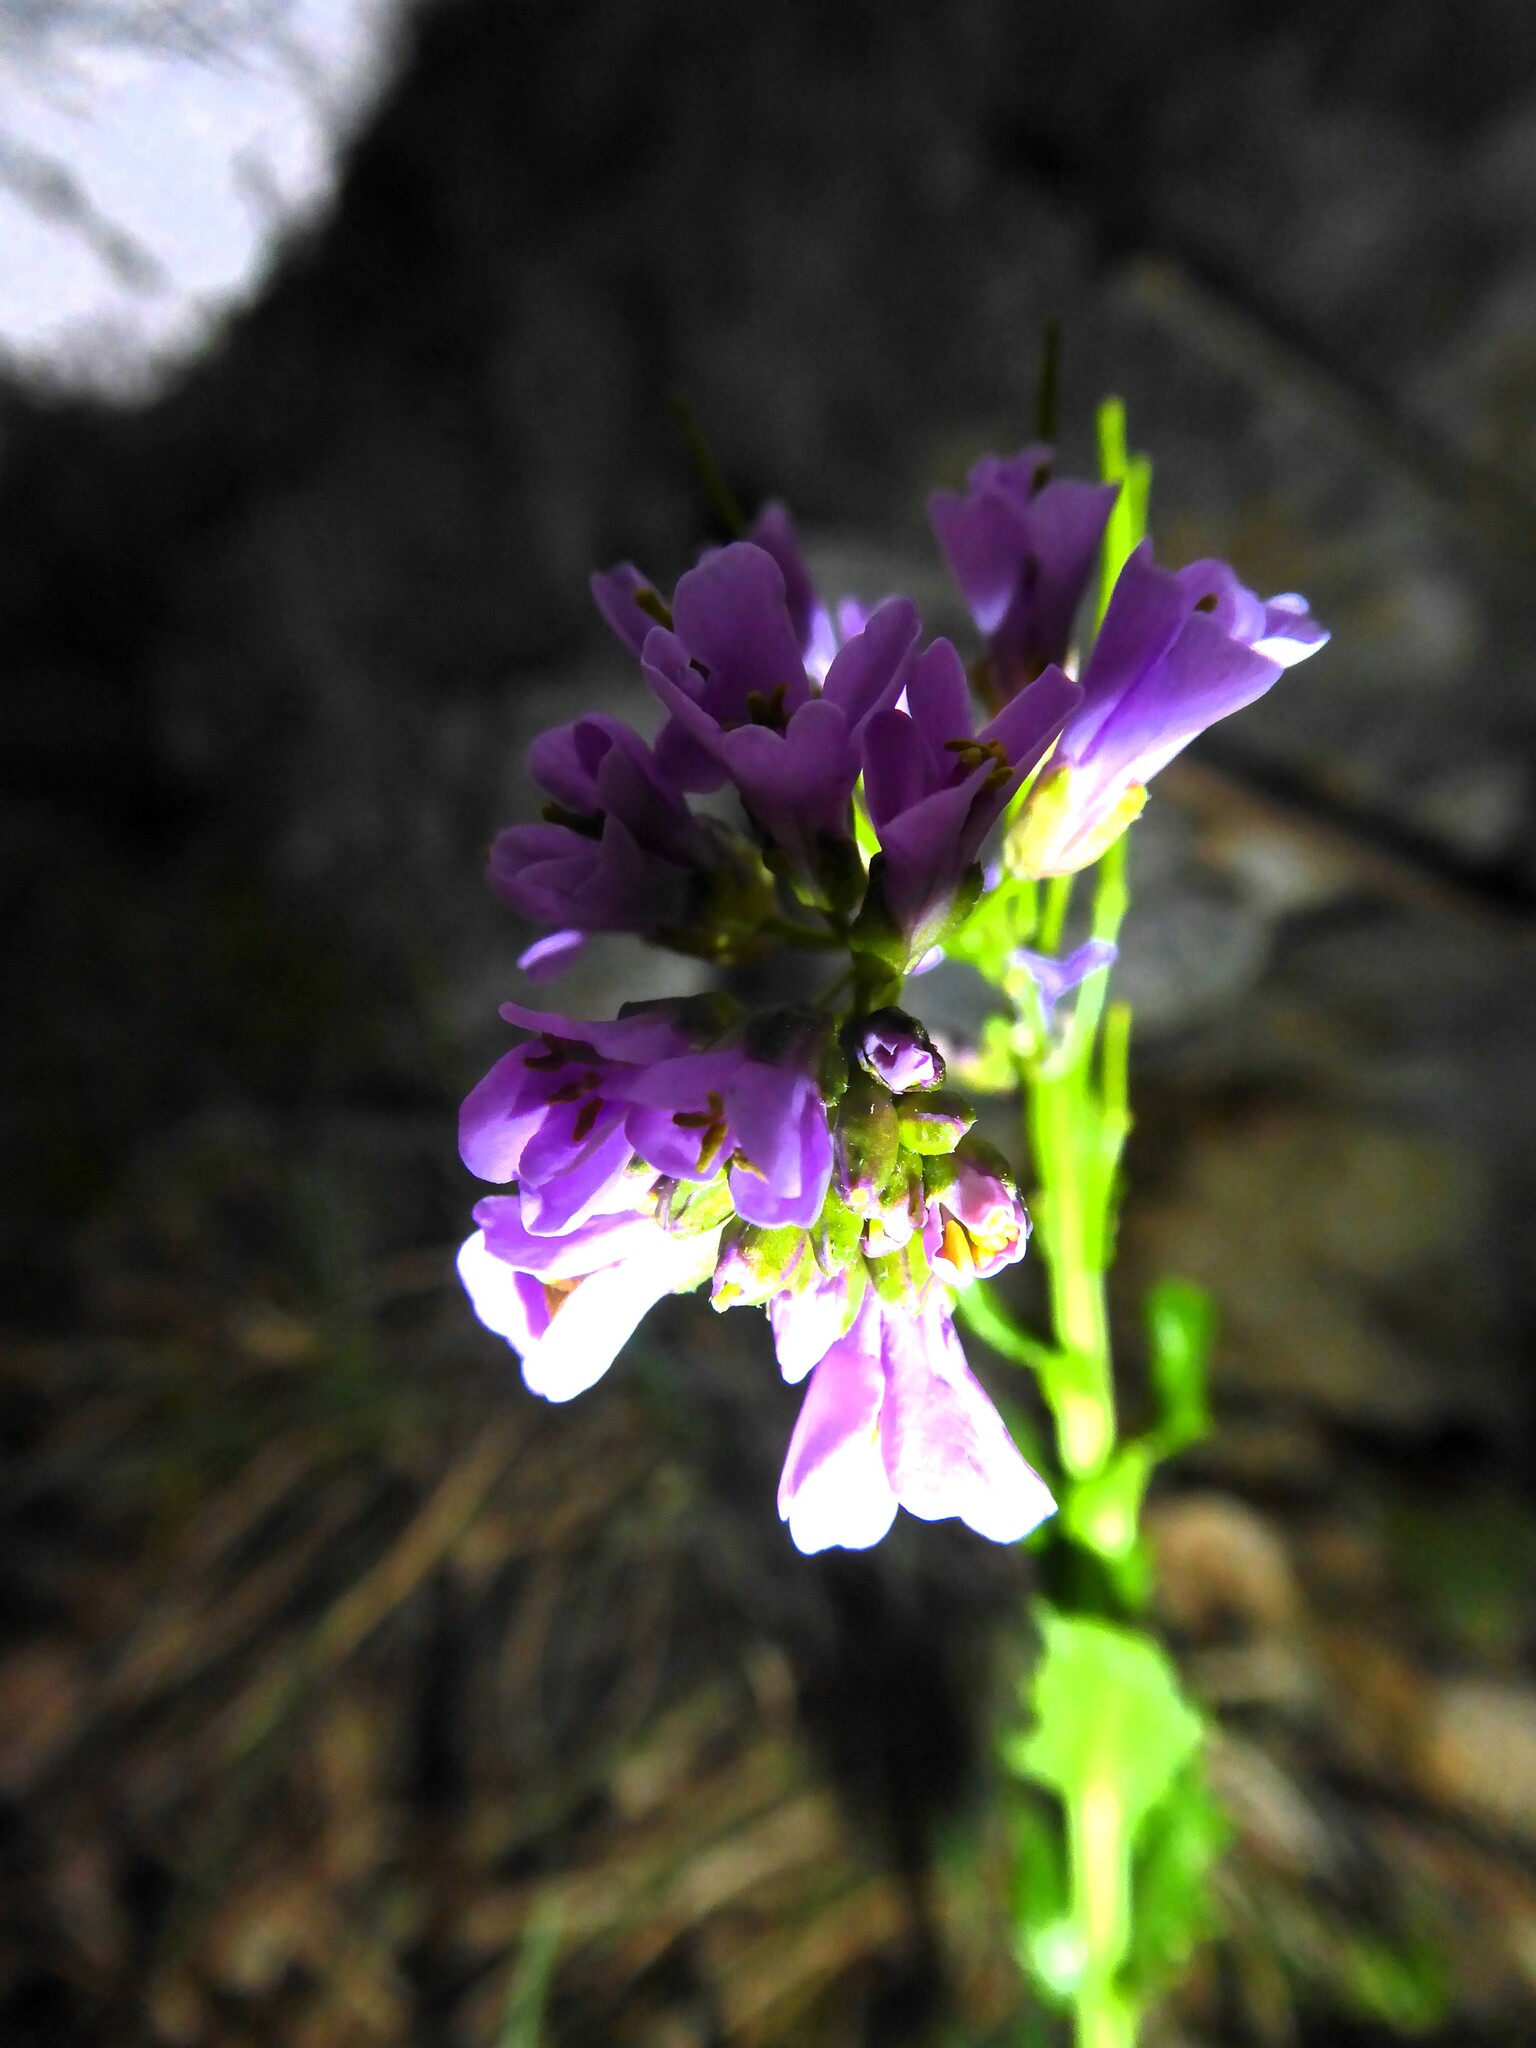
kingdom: Plantae
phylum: Tracheophyta
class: Magnoliopsida
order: Brassicales
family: Brassicaceae
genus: Arabis
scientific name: Arabis collina
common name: Rosy cress
